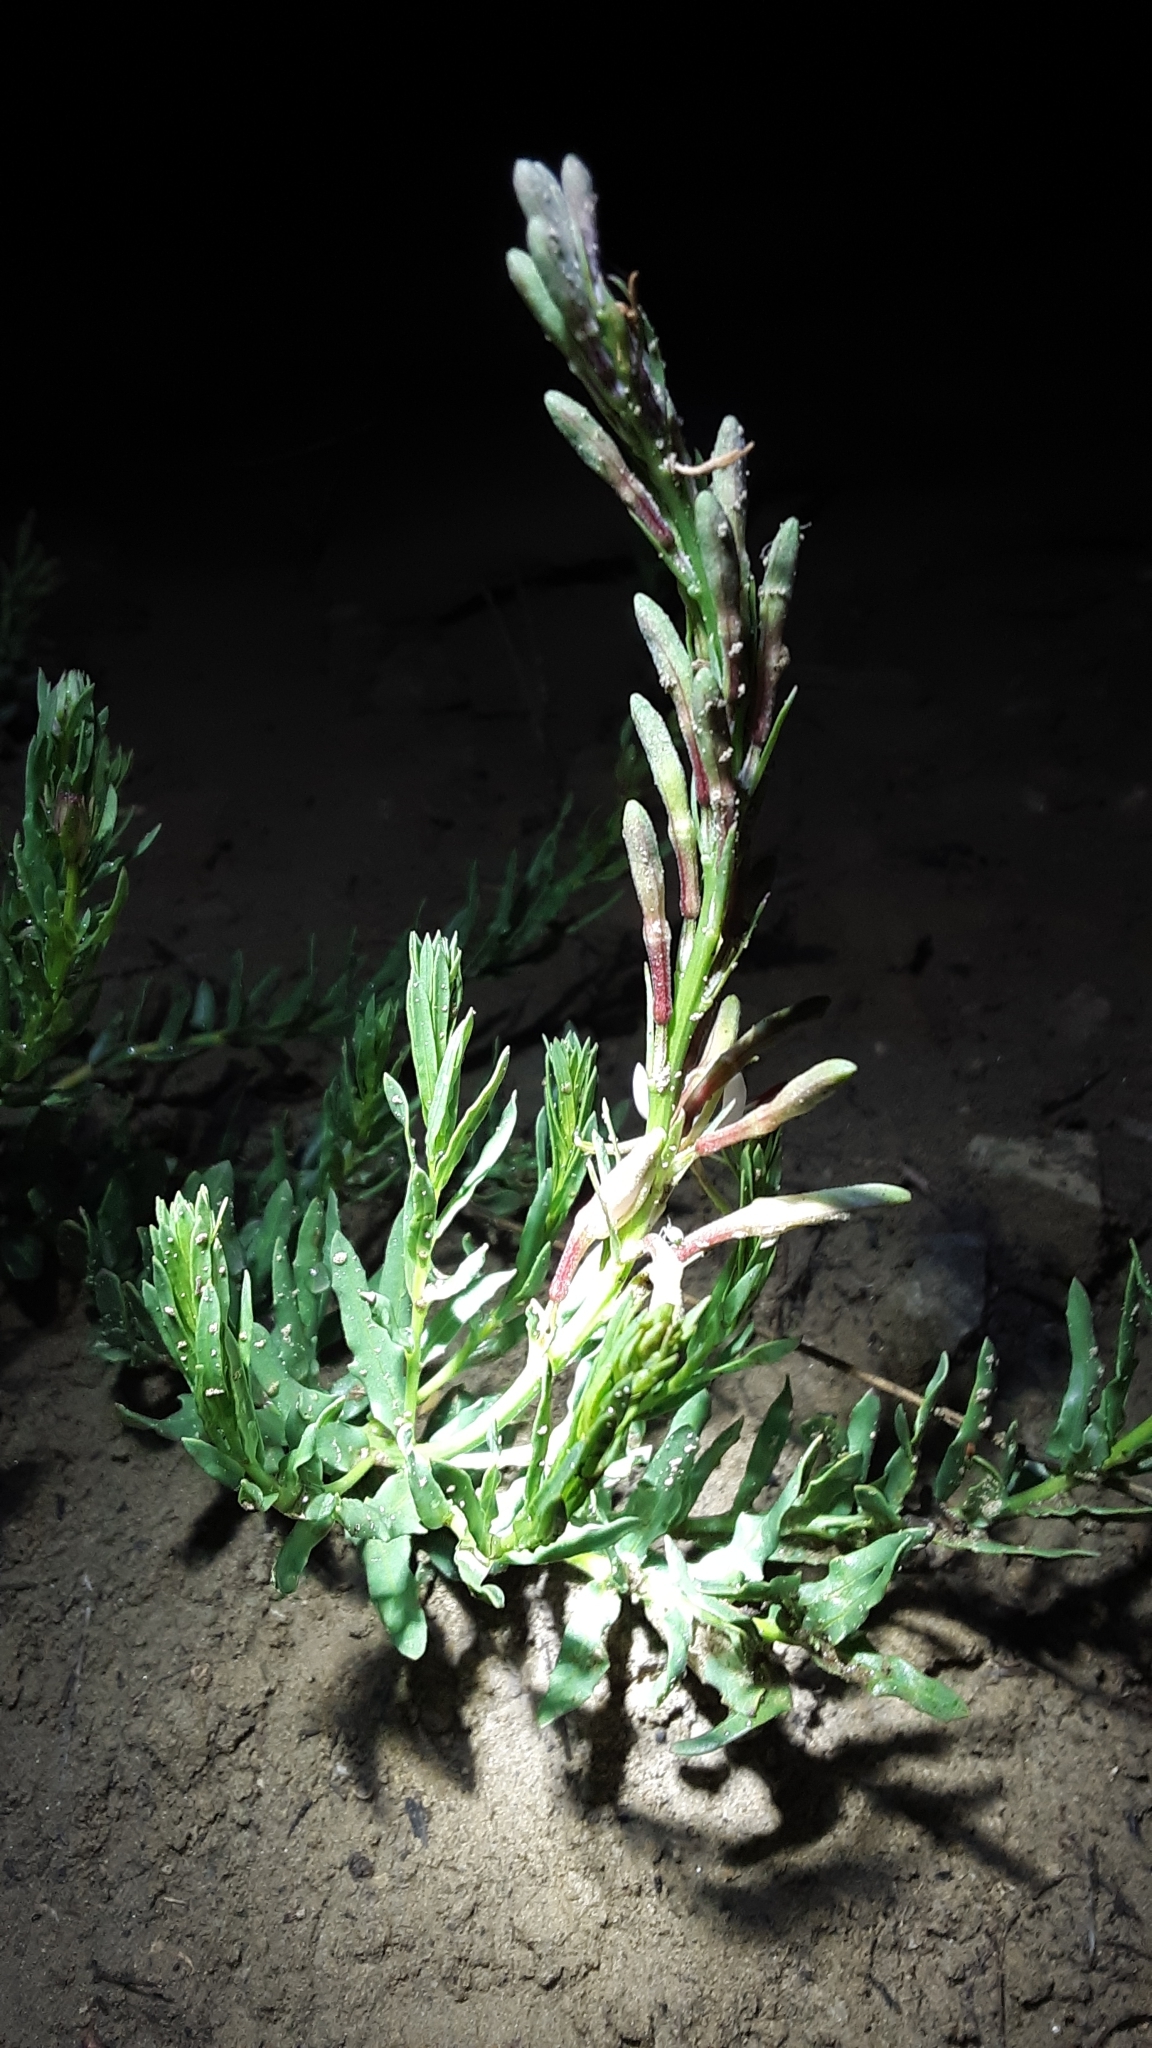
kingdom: Plantae
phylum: Tracheophyta
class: Magnoliopsida
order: Myrtales
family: Onagraceae
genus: Oenothera
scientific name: Oenothera suffrutescens
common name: Scarlet beeblossom
